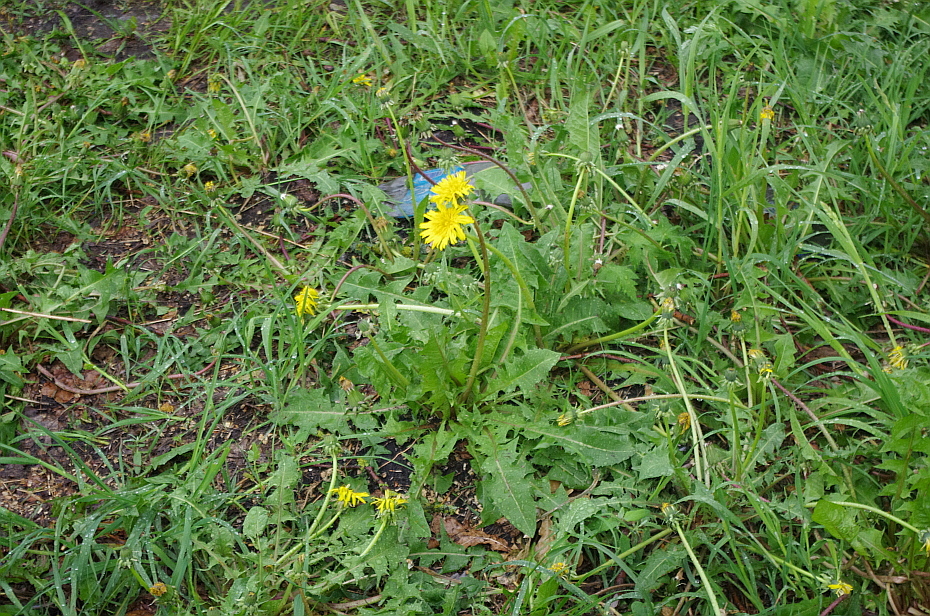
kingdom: Plantae
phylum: Tracheophyta
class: Magnoliopsida
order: Asterales
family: Asteraceae
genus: Taraxacum
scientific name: Taraxacum officinale
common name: Common dandelion
